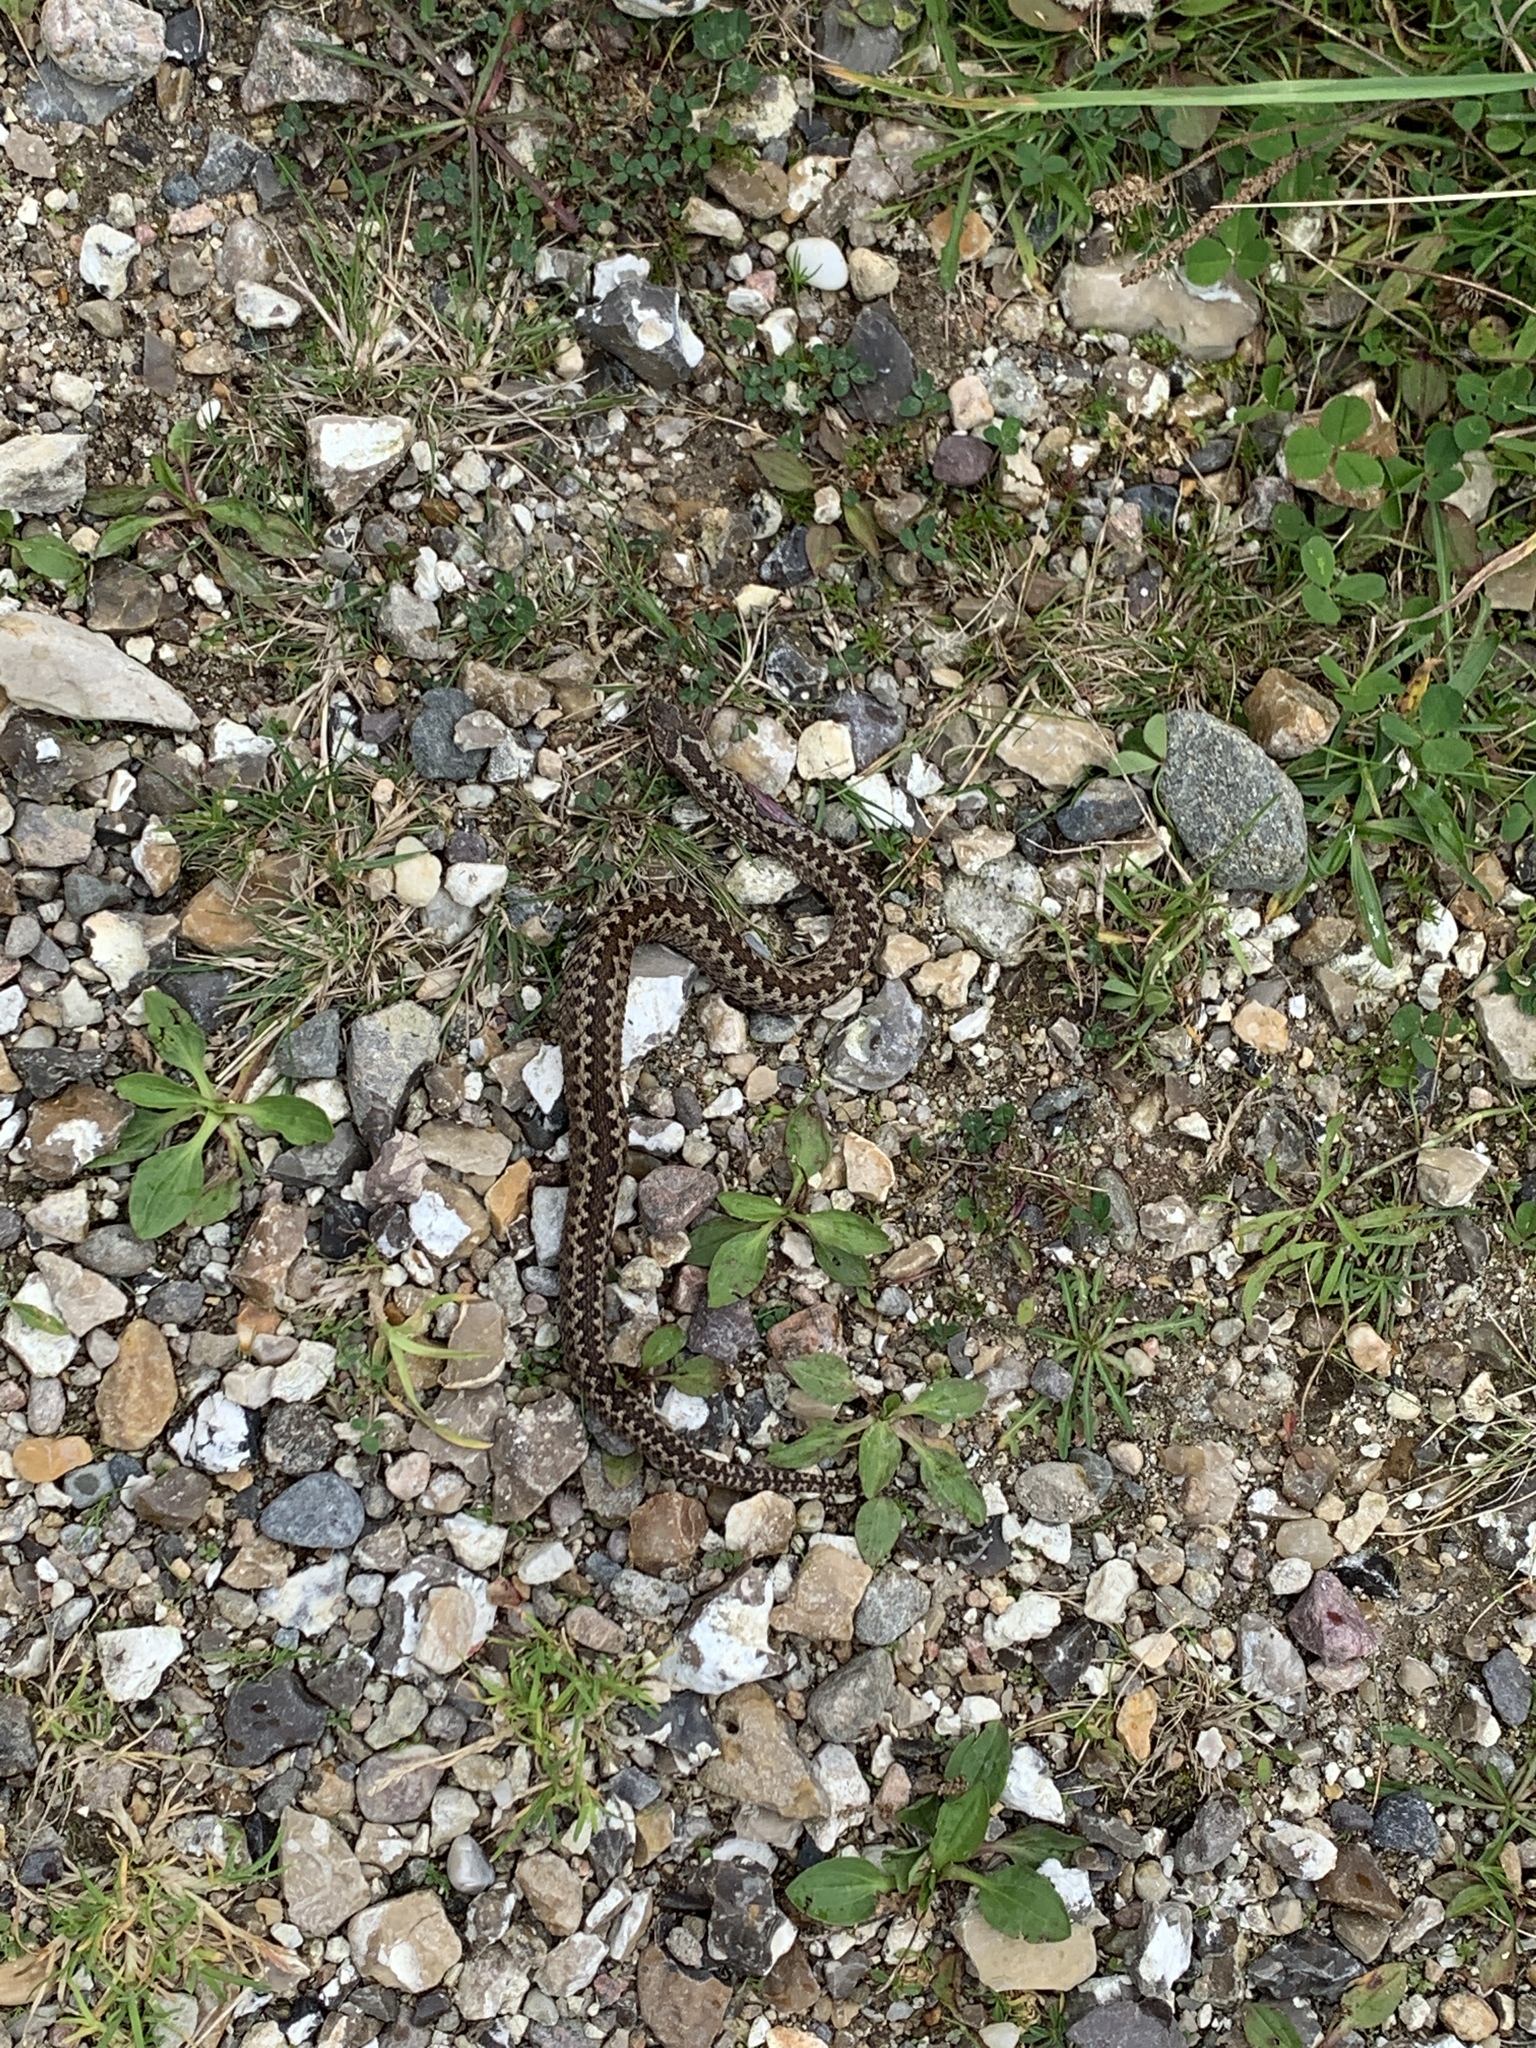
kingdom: Animalia
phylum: Chordata
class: Squamata
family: Viperidae
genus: Vipera
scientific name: Vipera berus
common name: Adder
